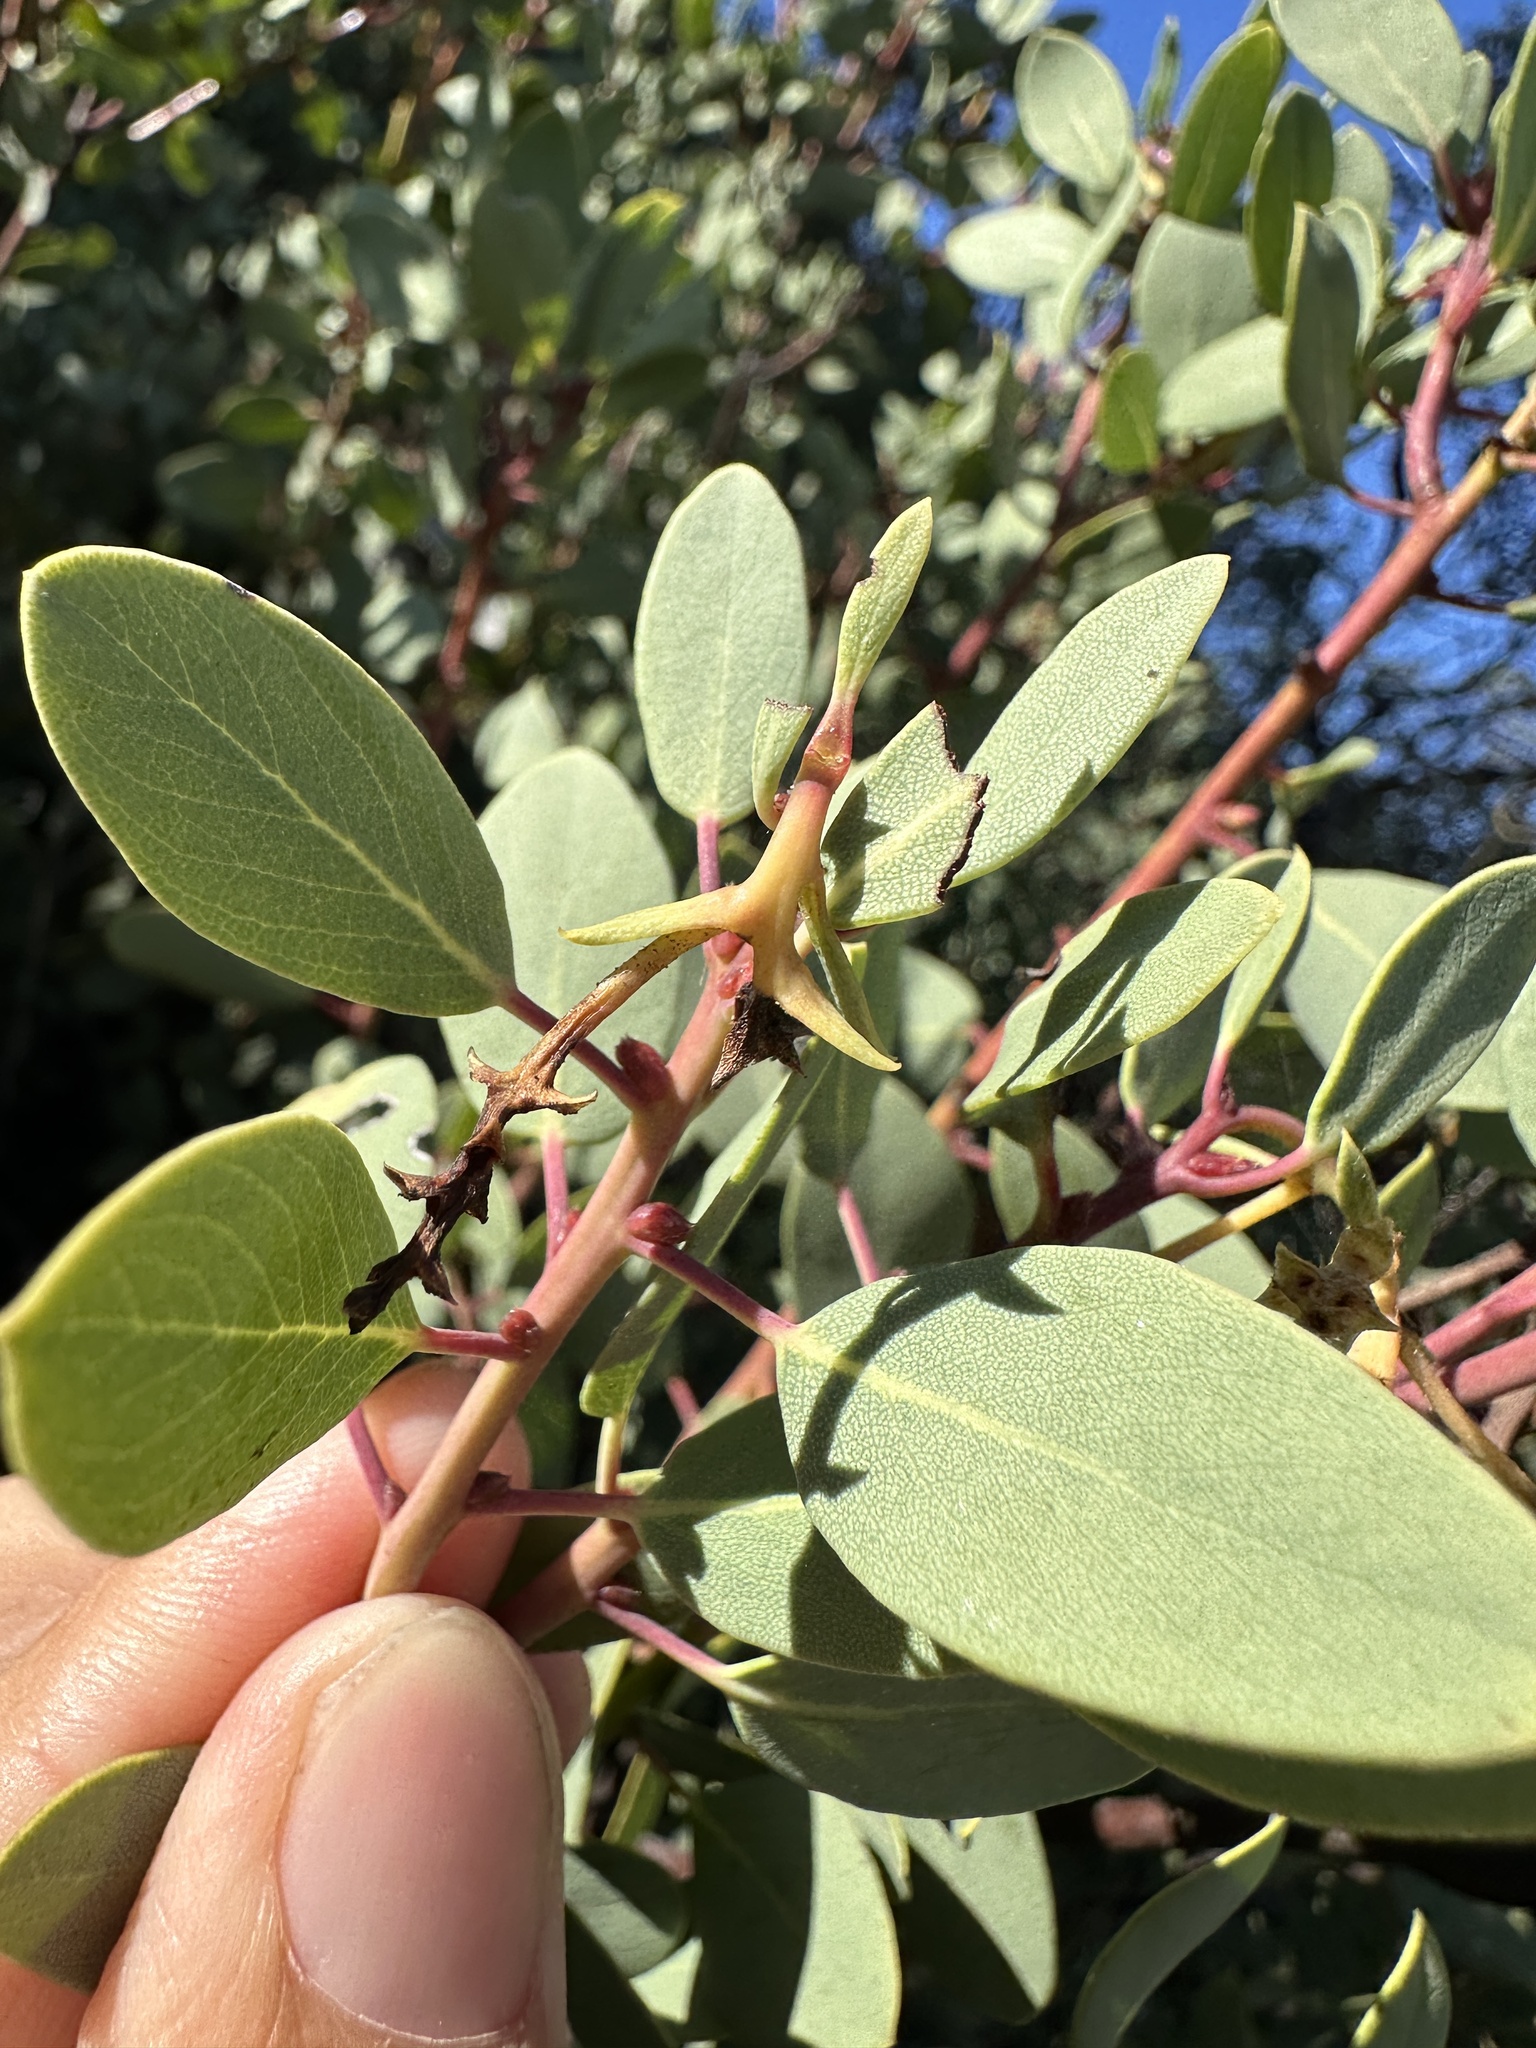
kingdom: Plantae
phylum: Tracheophyta
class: Magnoliopsida
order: Ericales
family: Ericaceae
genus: Arctostaphylos
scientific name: Arctostaphylos glauca
